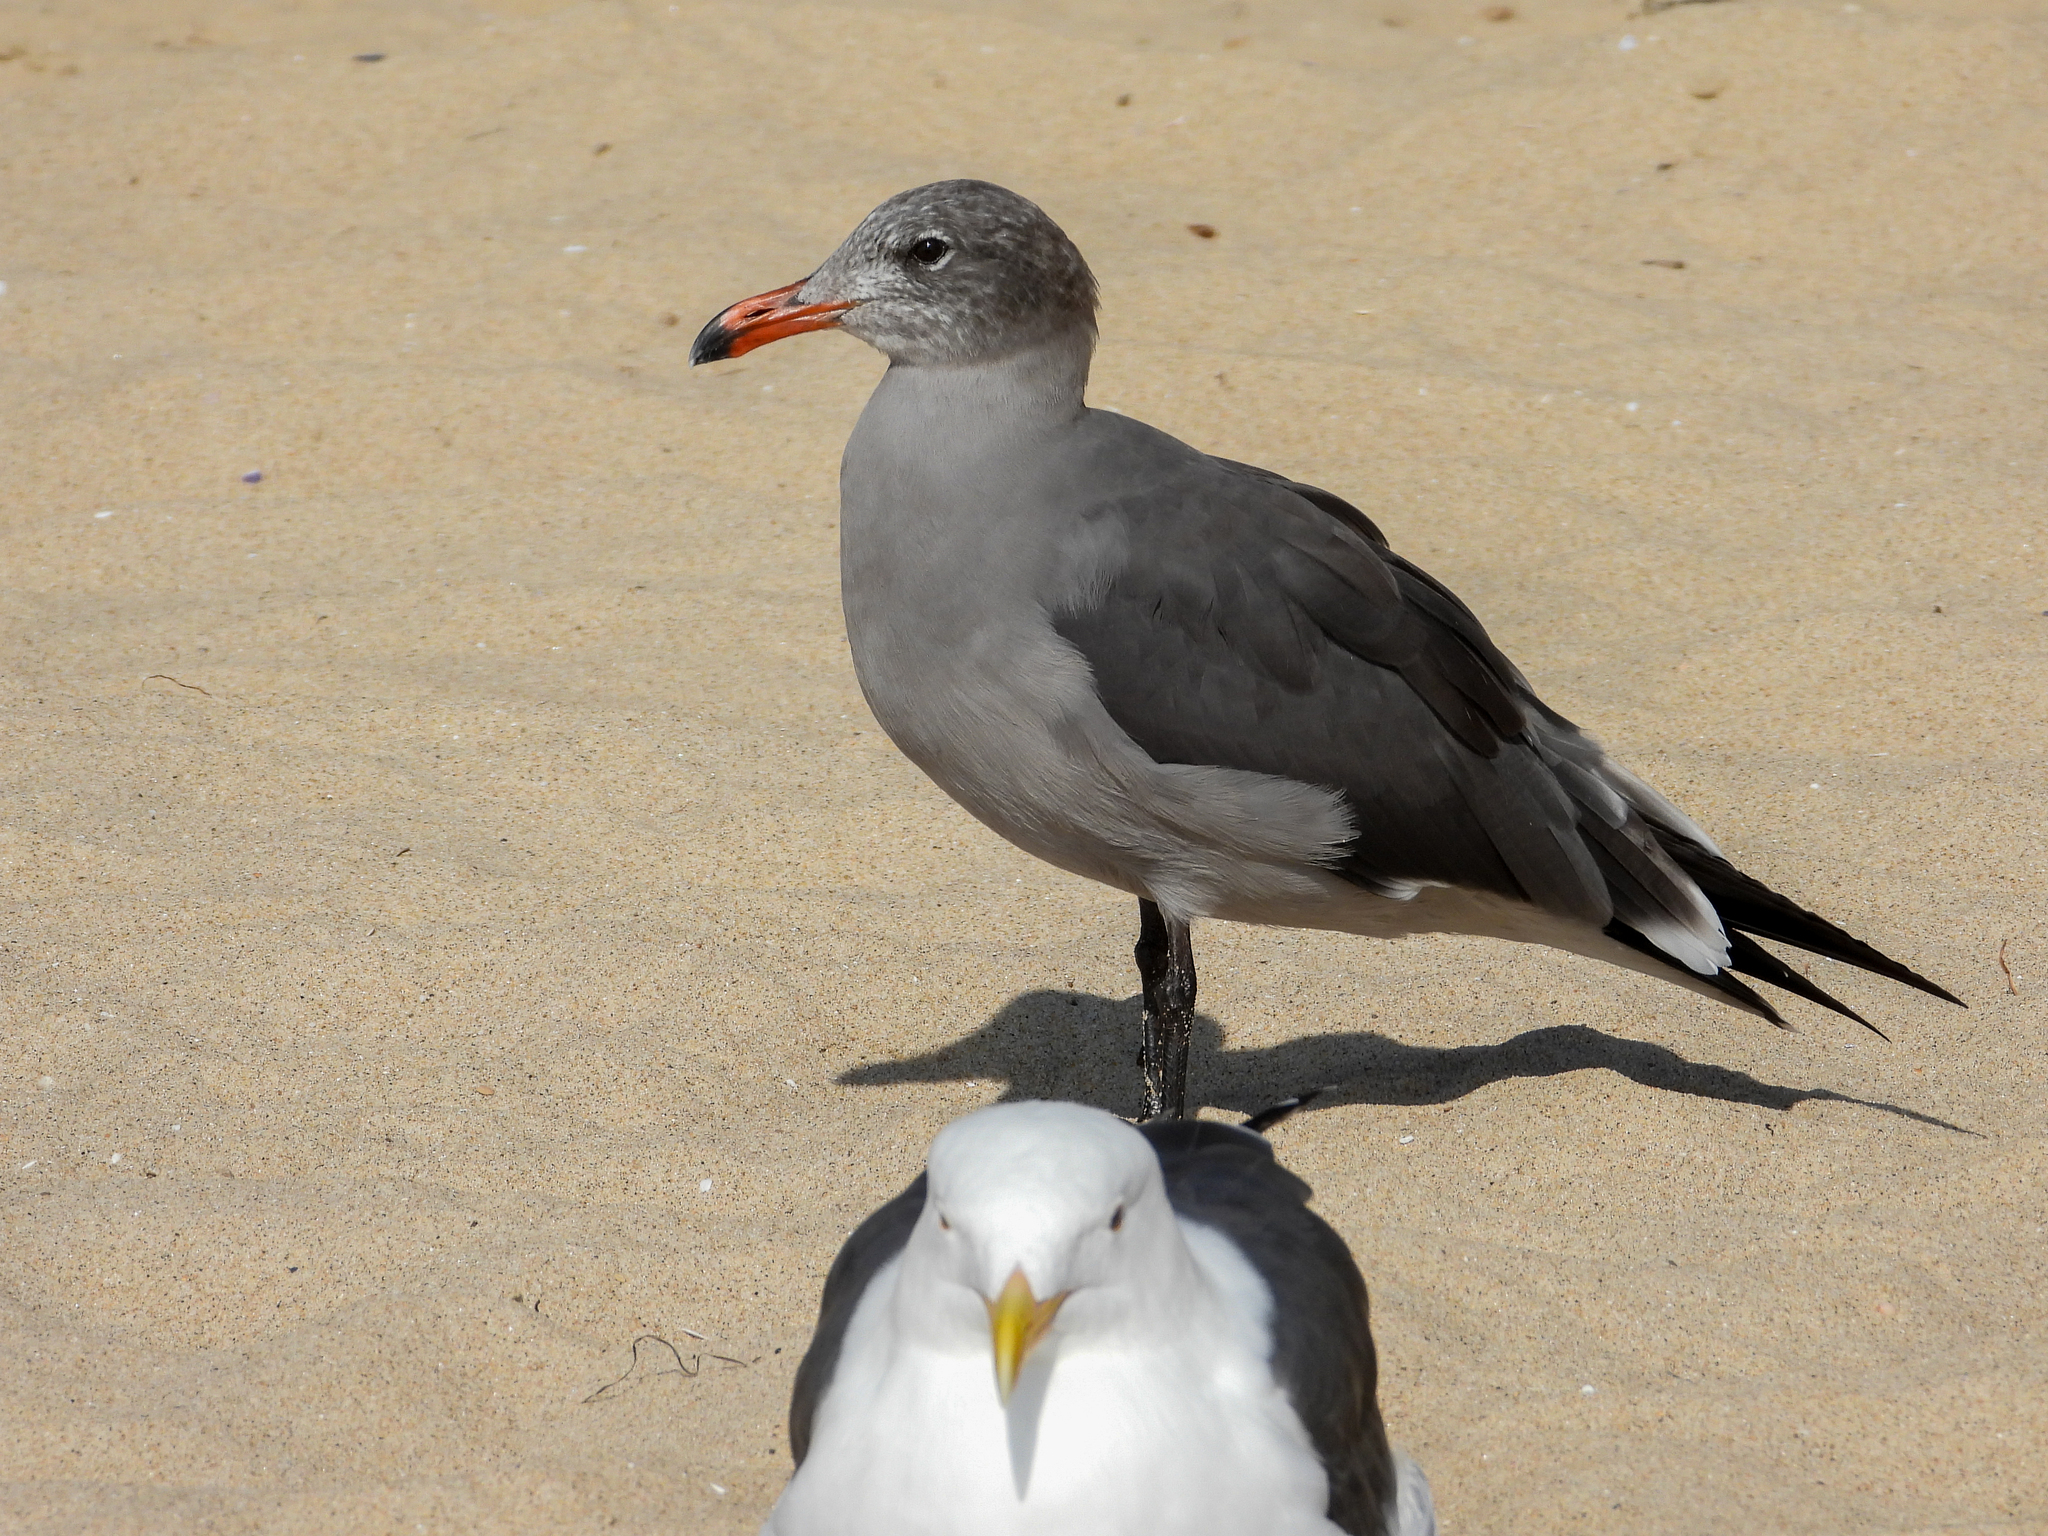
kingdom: Animalia
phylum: Chordata
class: Aves
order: Charadriiformes
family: Laridae
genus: Larus
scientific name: Larus heermanni
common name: Heermann's gull
